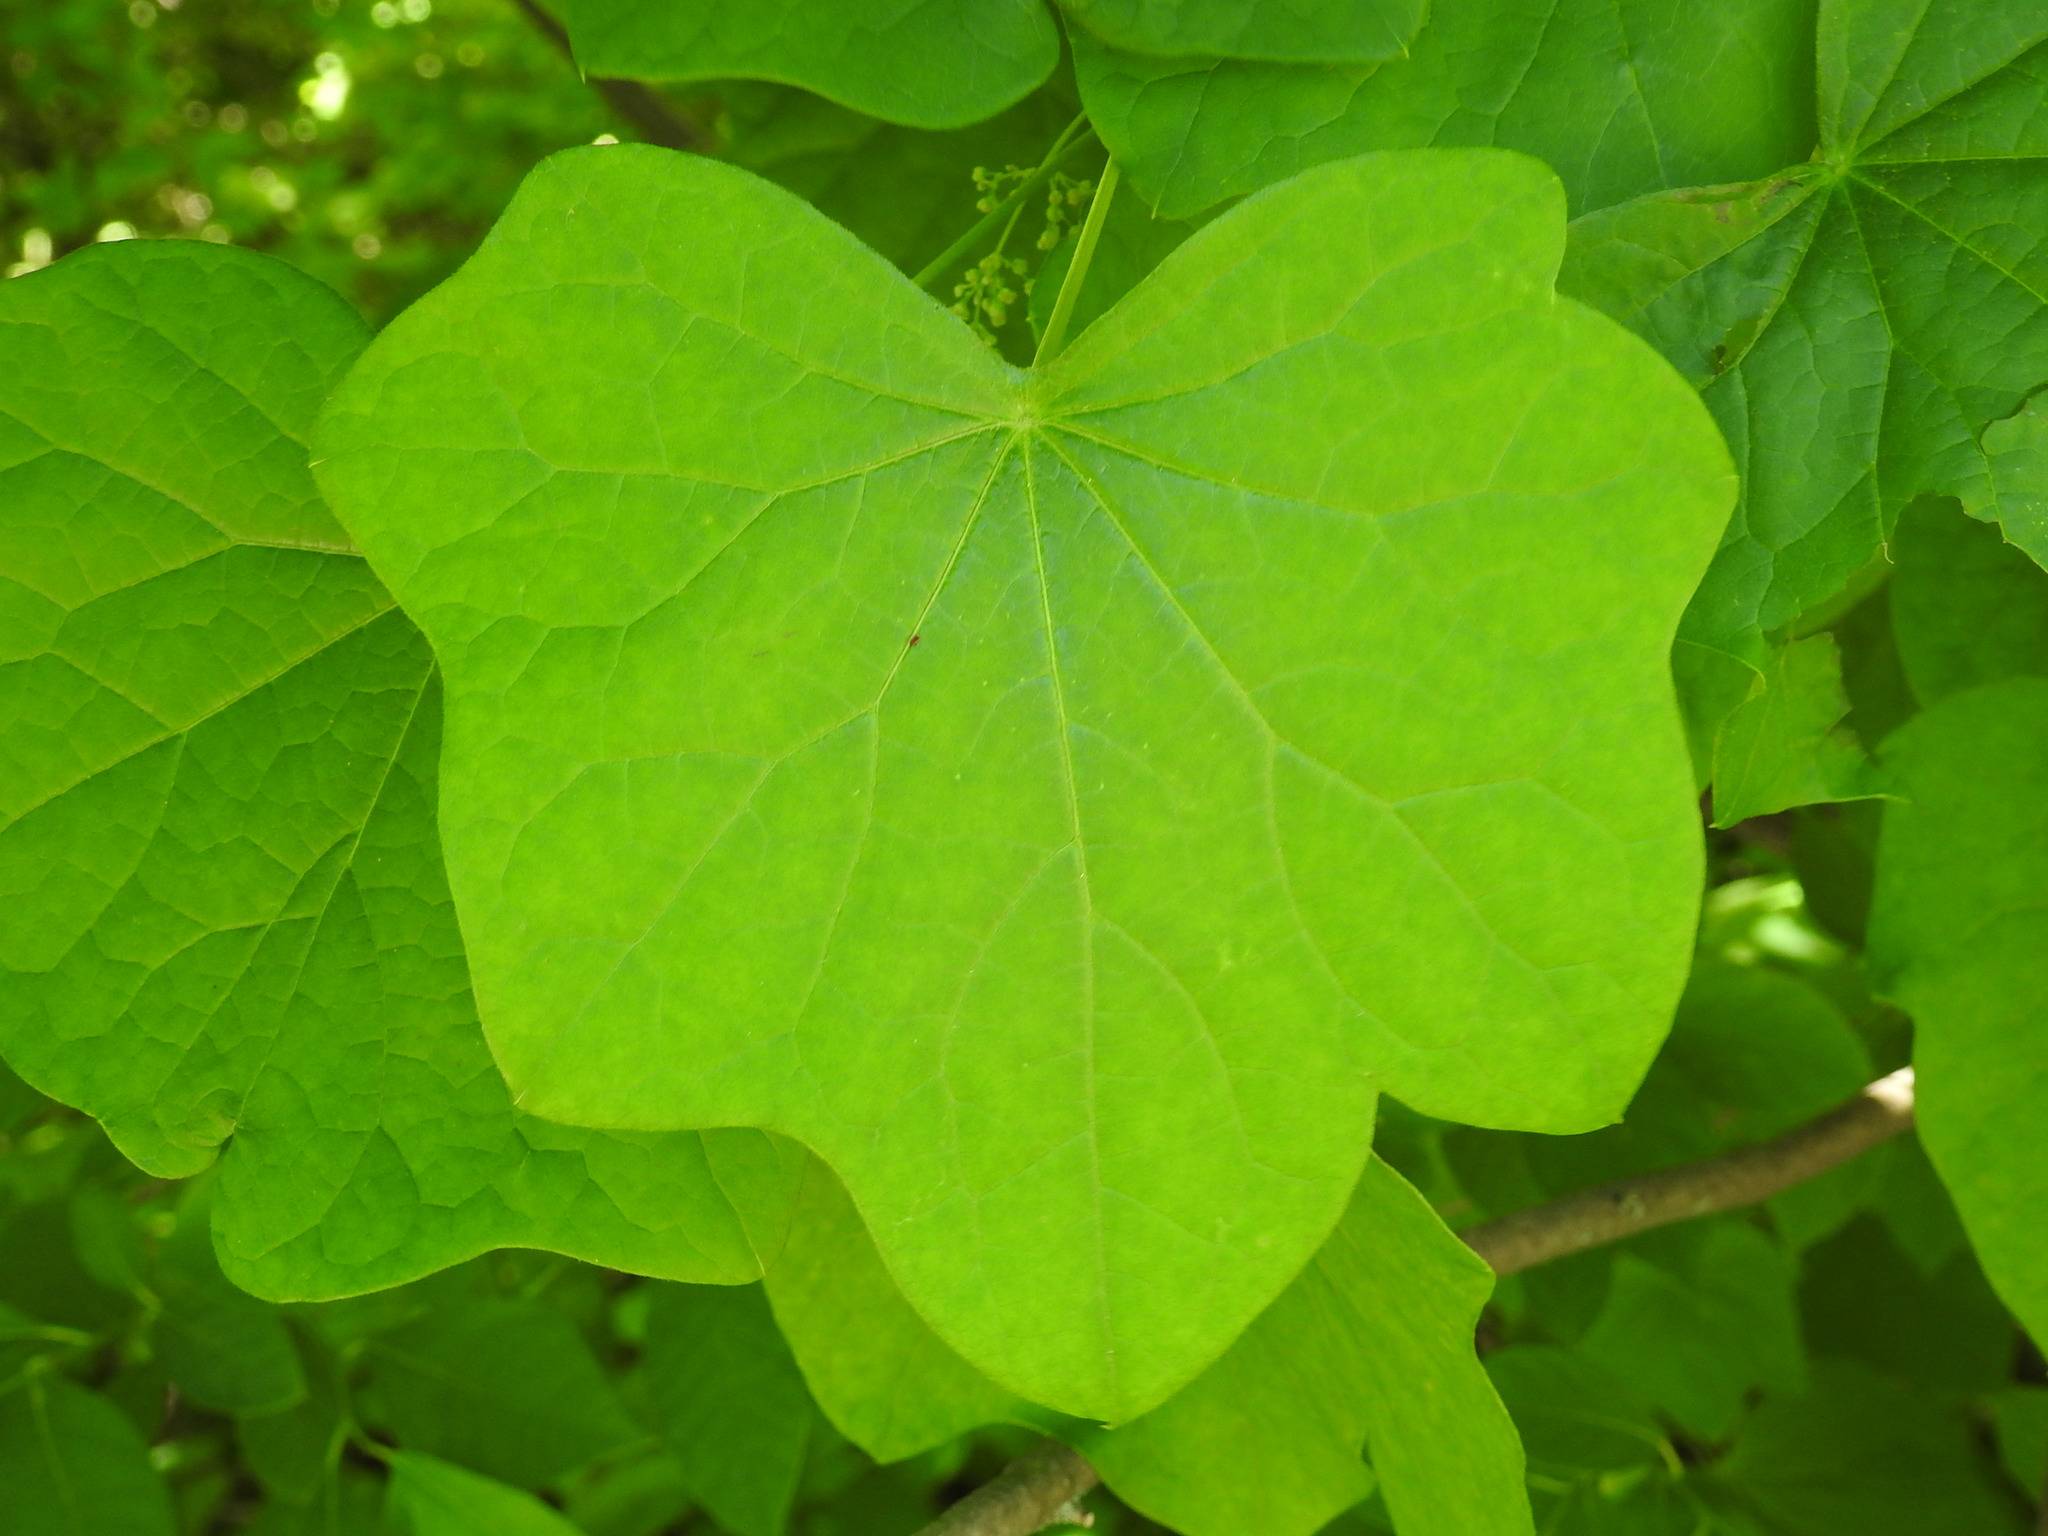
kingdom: Plantae
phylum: Tracheophyta
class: Magnoliopsida
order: Ranunculales
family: Menispermaceae
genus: Menispermum
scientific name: Menispermum canadense
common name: Moonseed
